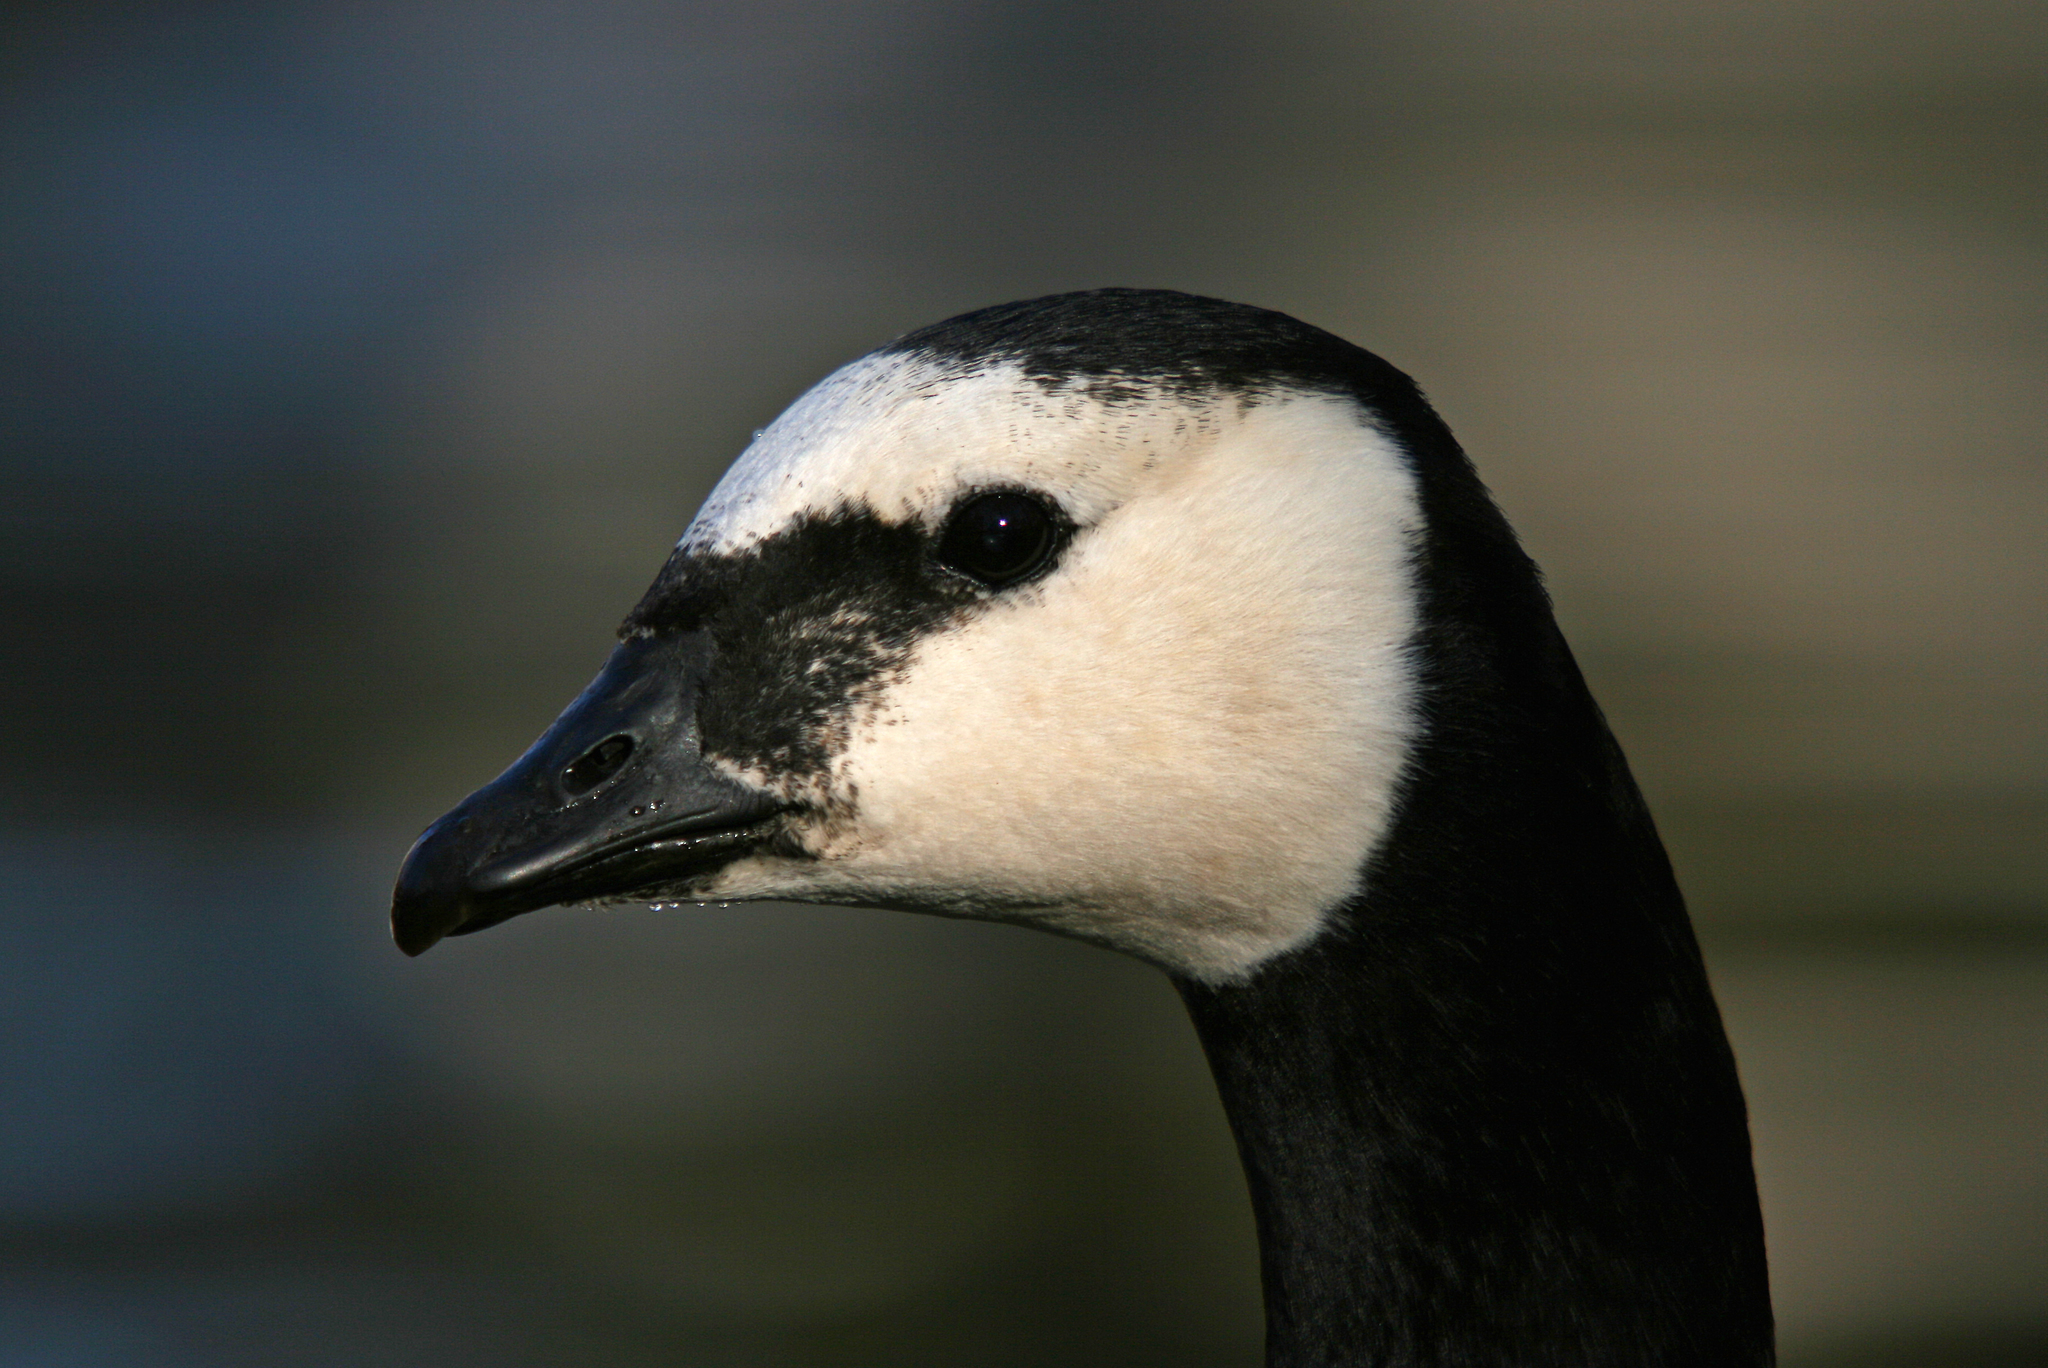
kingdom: Animalia
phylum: Chordata
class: Aves
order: Anseriformes
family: Anatidae
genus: Branta
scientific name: Branta leucopsis
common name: Barnacle goose
